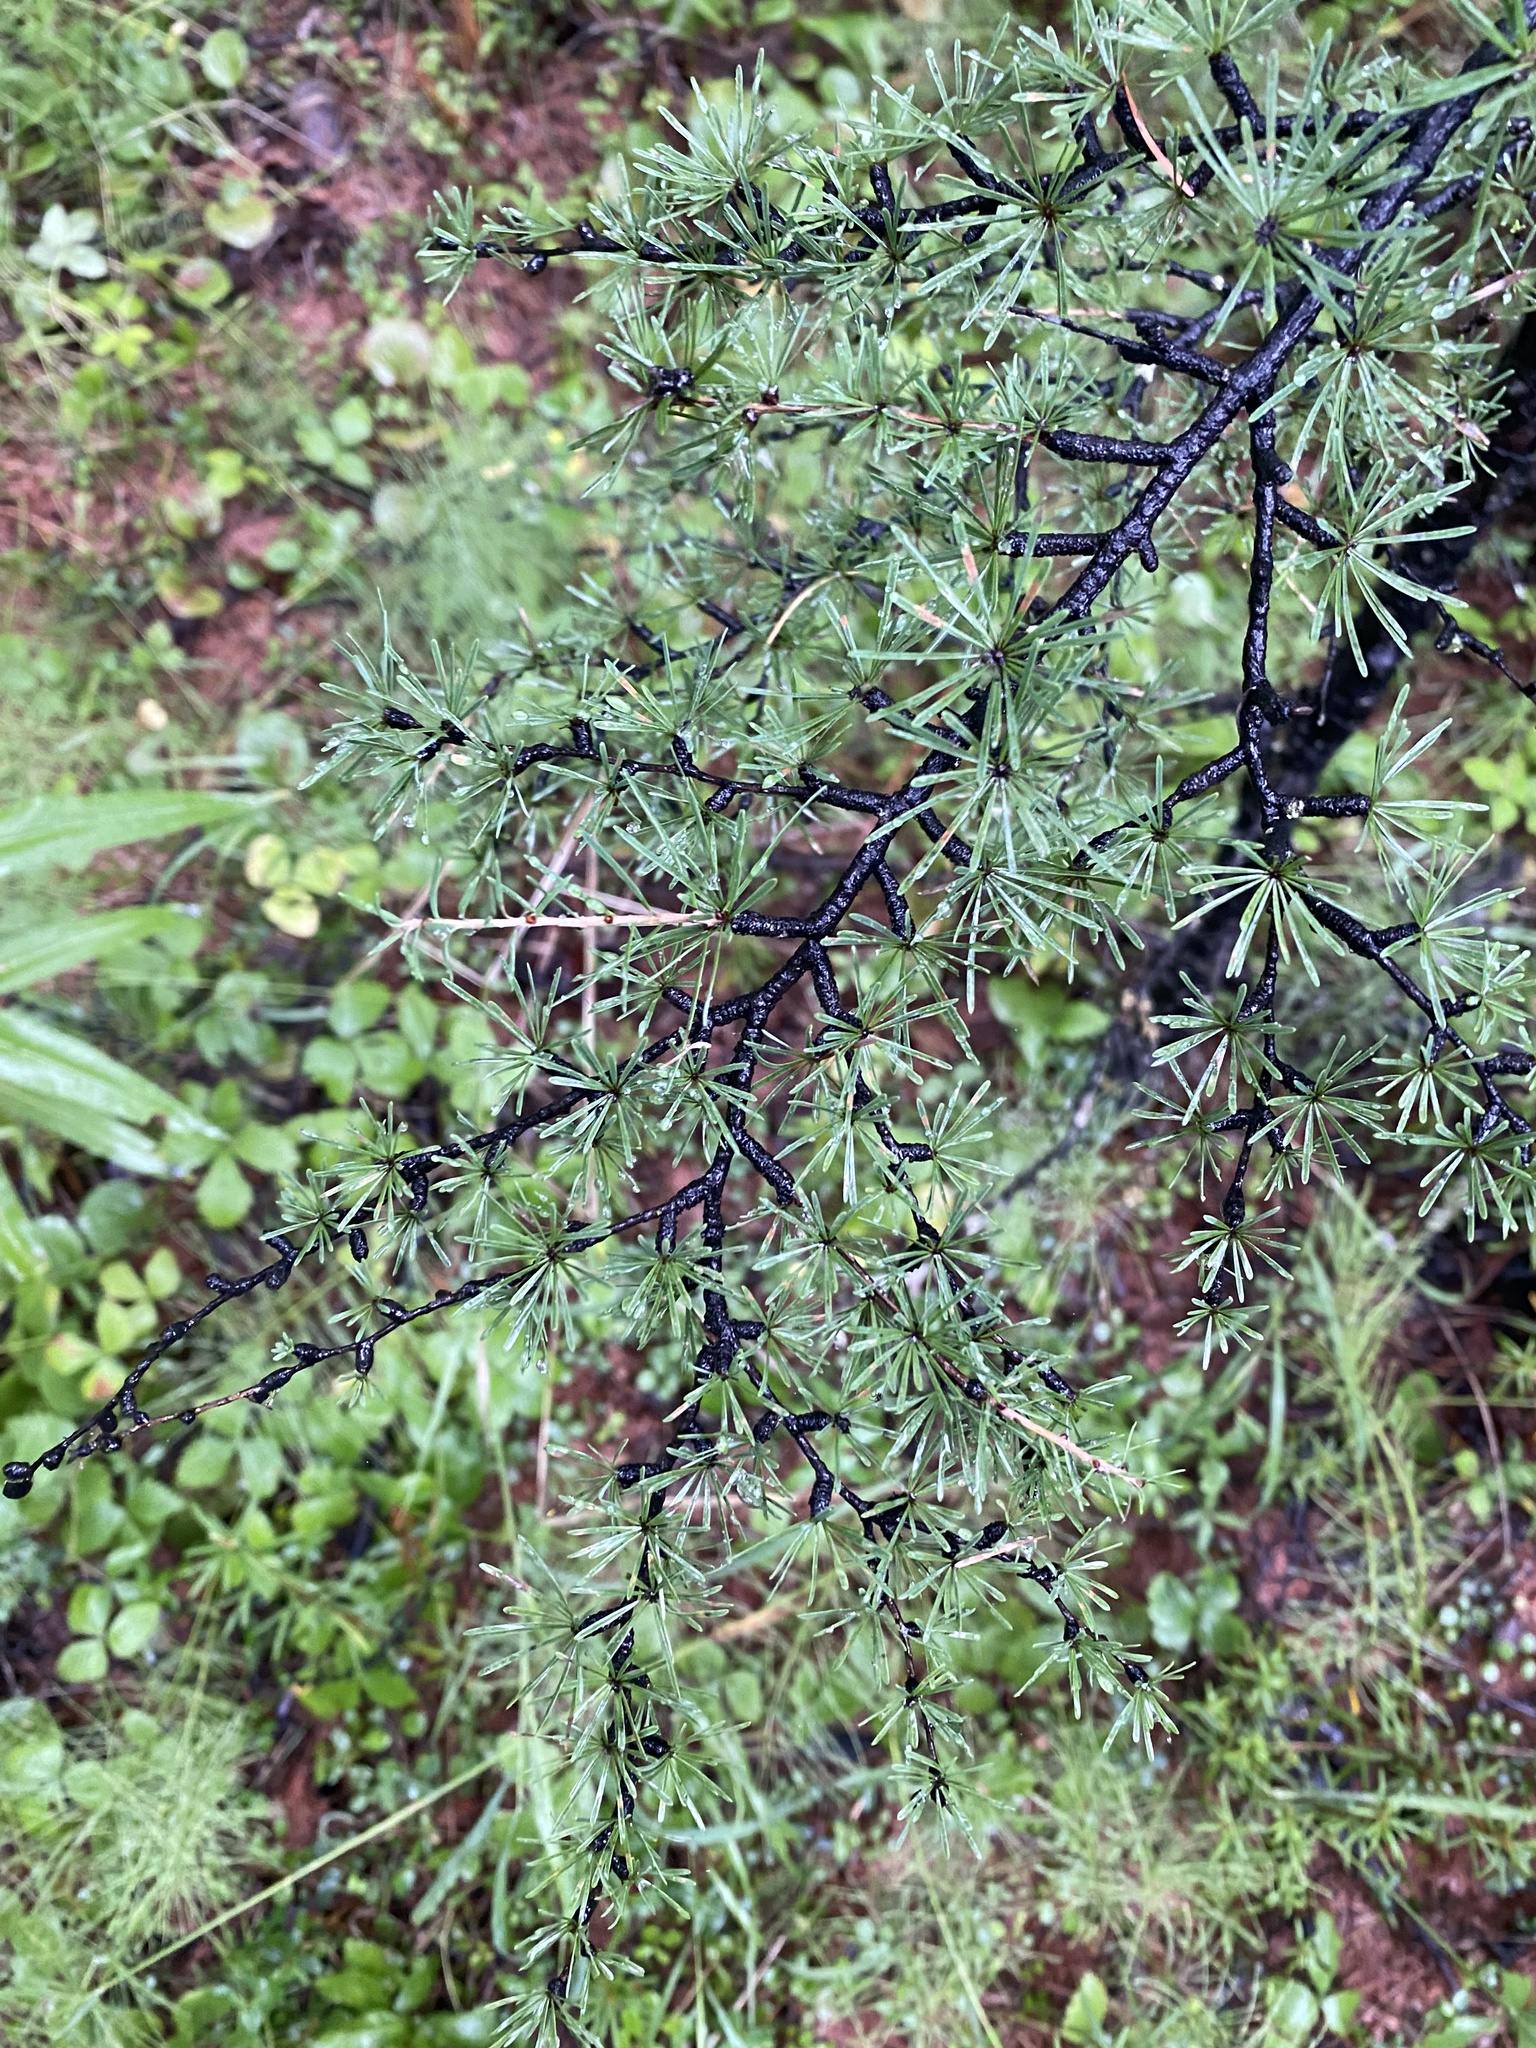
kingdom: Plantae
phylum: Tracheophyta
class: Pinopsida
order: Pinales
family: Pinaceae
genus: Larix
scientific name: Larix gmelinii
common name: Dahurian larch
